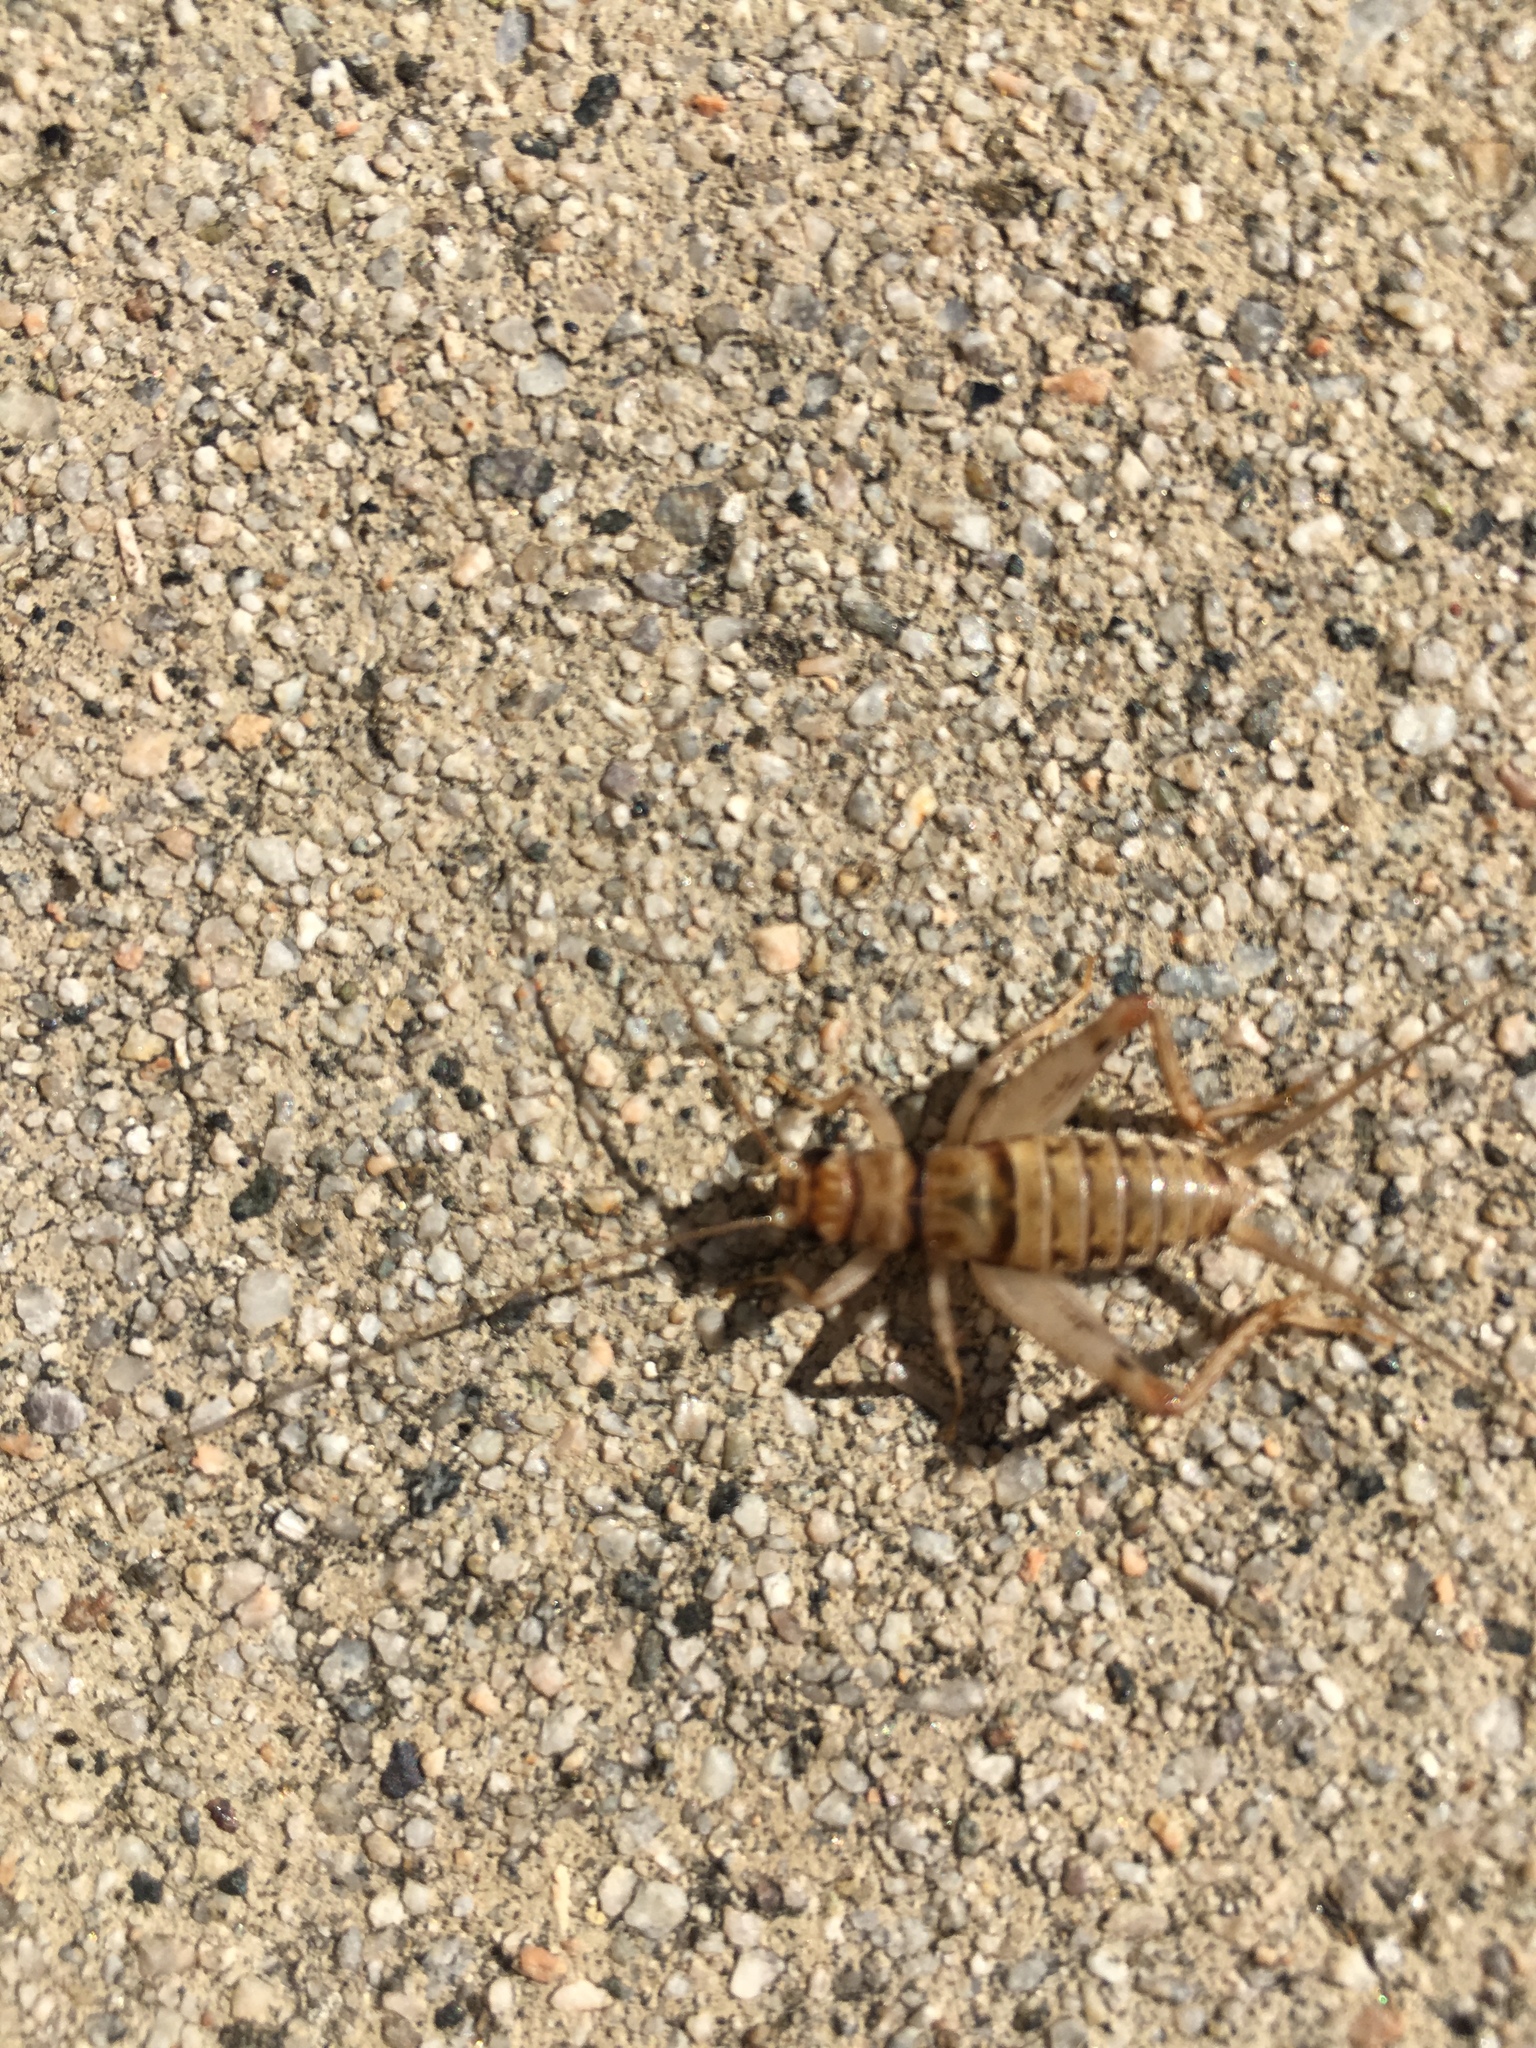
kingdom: Animalia
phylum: Arthropoda
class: Insecta
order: Orthoptera
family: Gryllidae
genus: Gryllodes
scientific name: Gryllodes sigillatus
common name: Tropical house cricket
